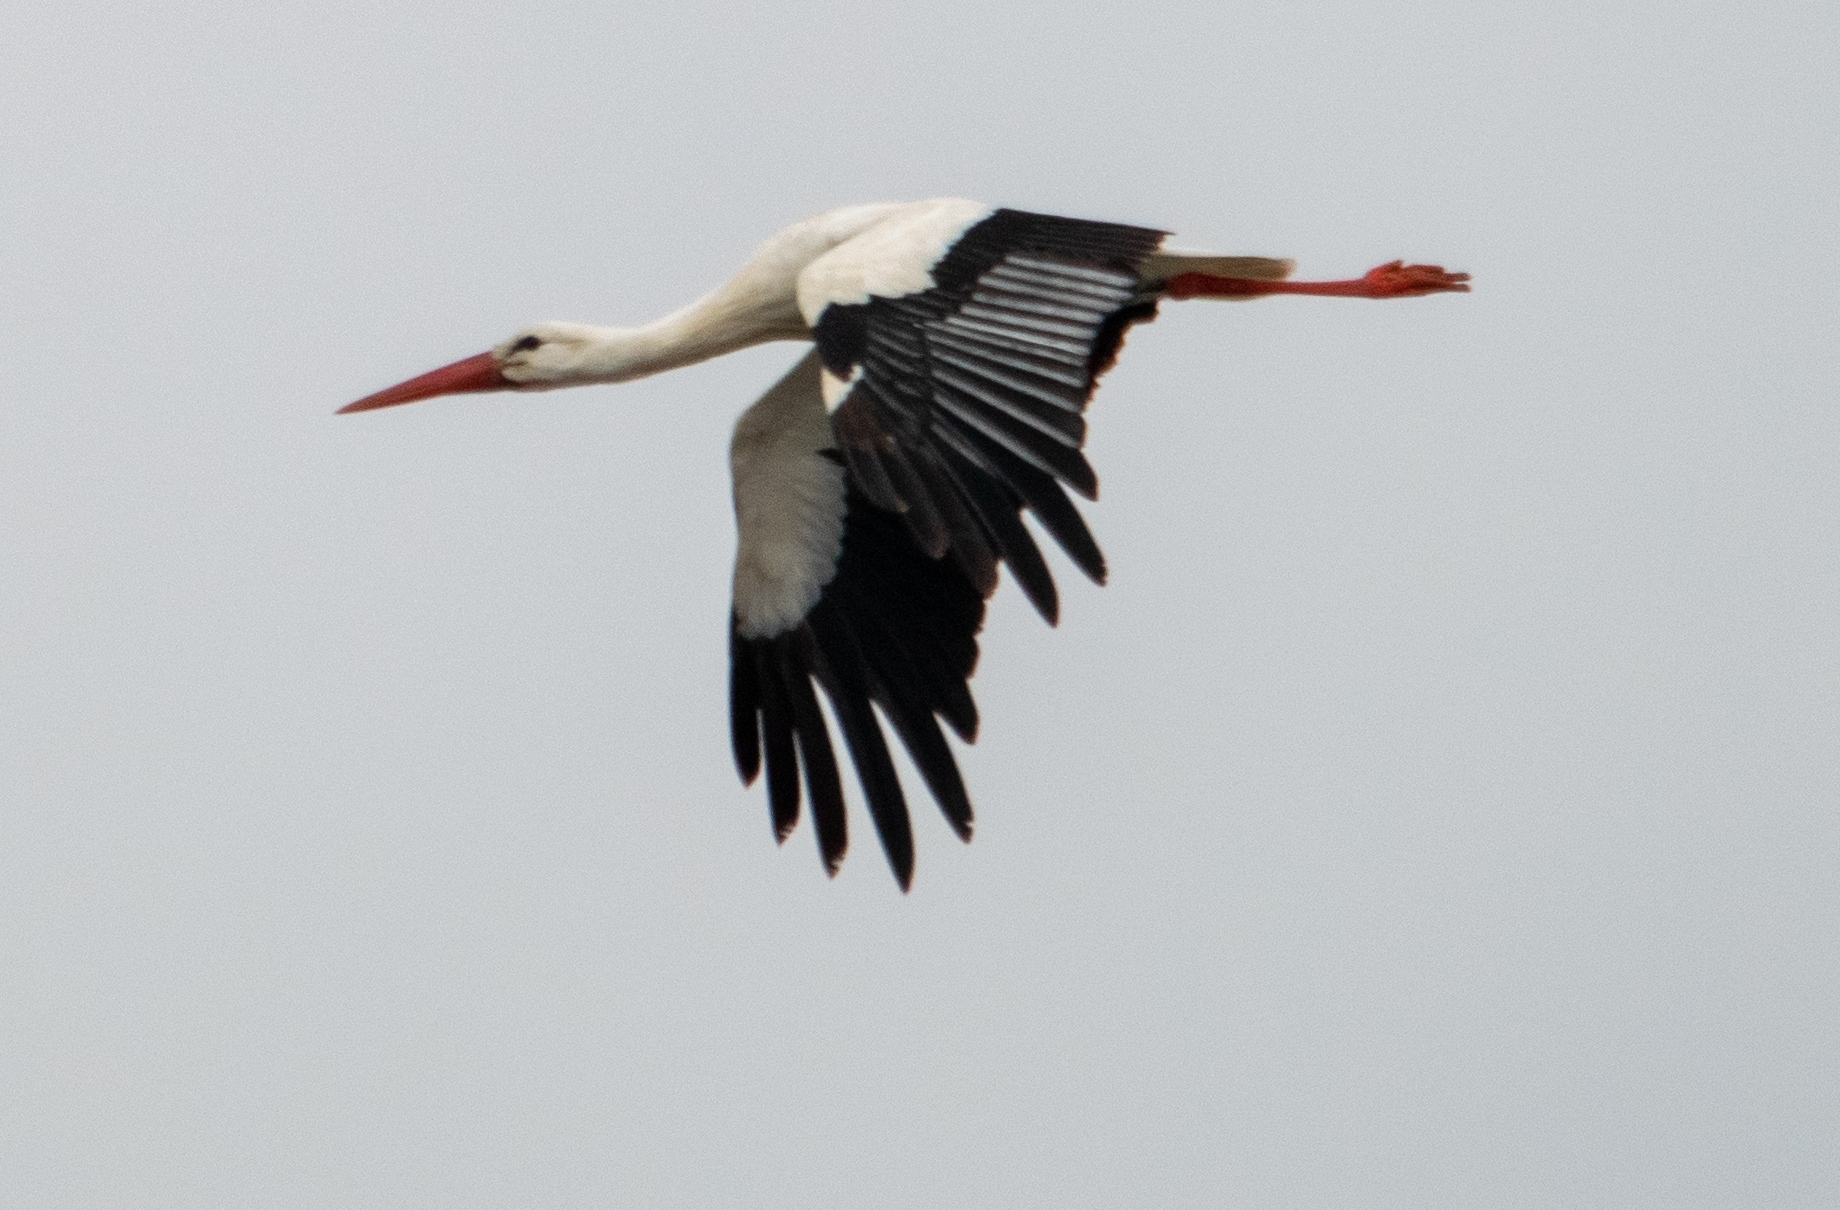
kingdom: Animalia
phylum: Chordata
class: Aves
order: Ciconiiformes
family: Ciconiidae
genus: Ciconia
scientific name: Ciconia ciconia
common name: White stork
